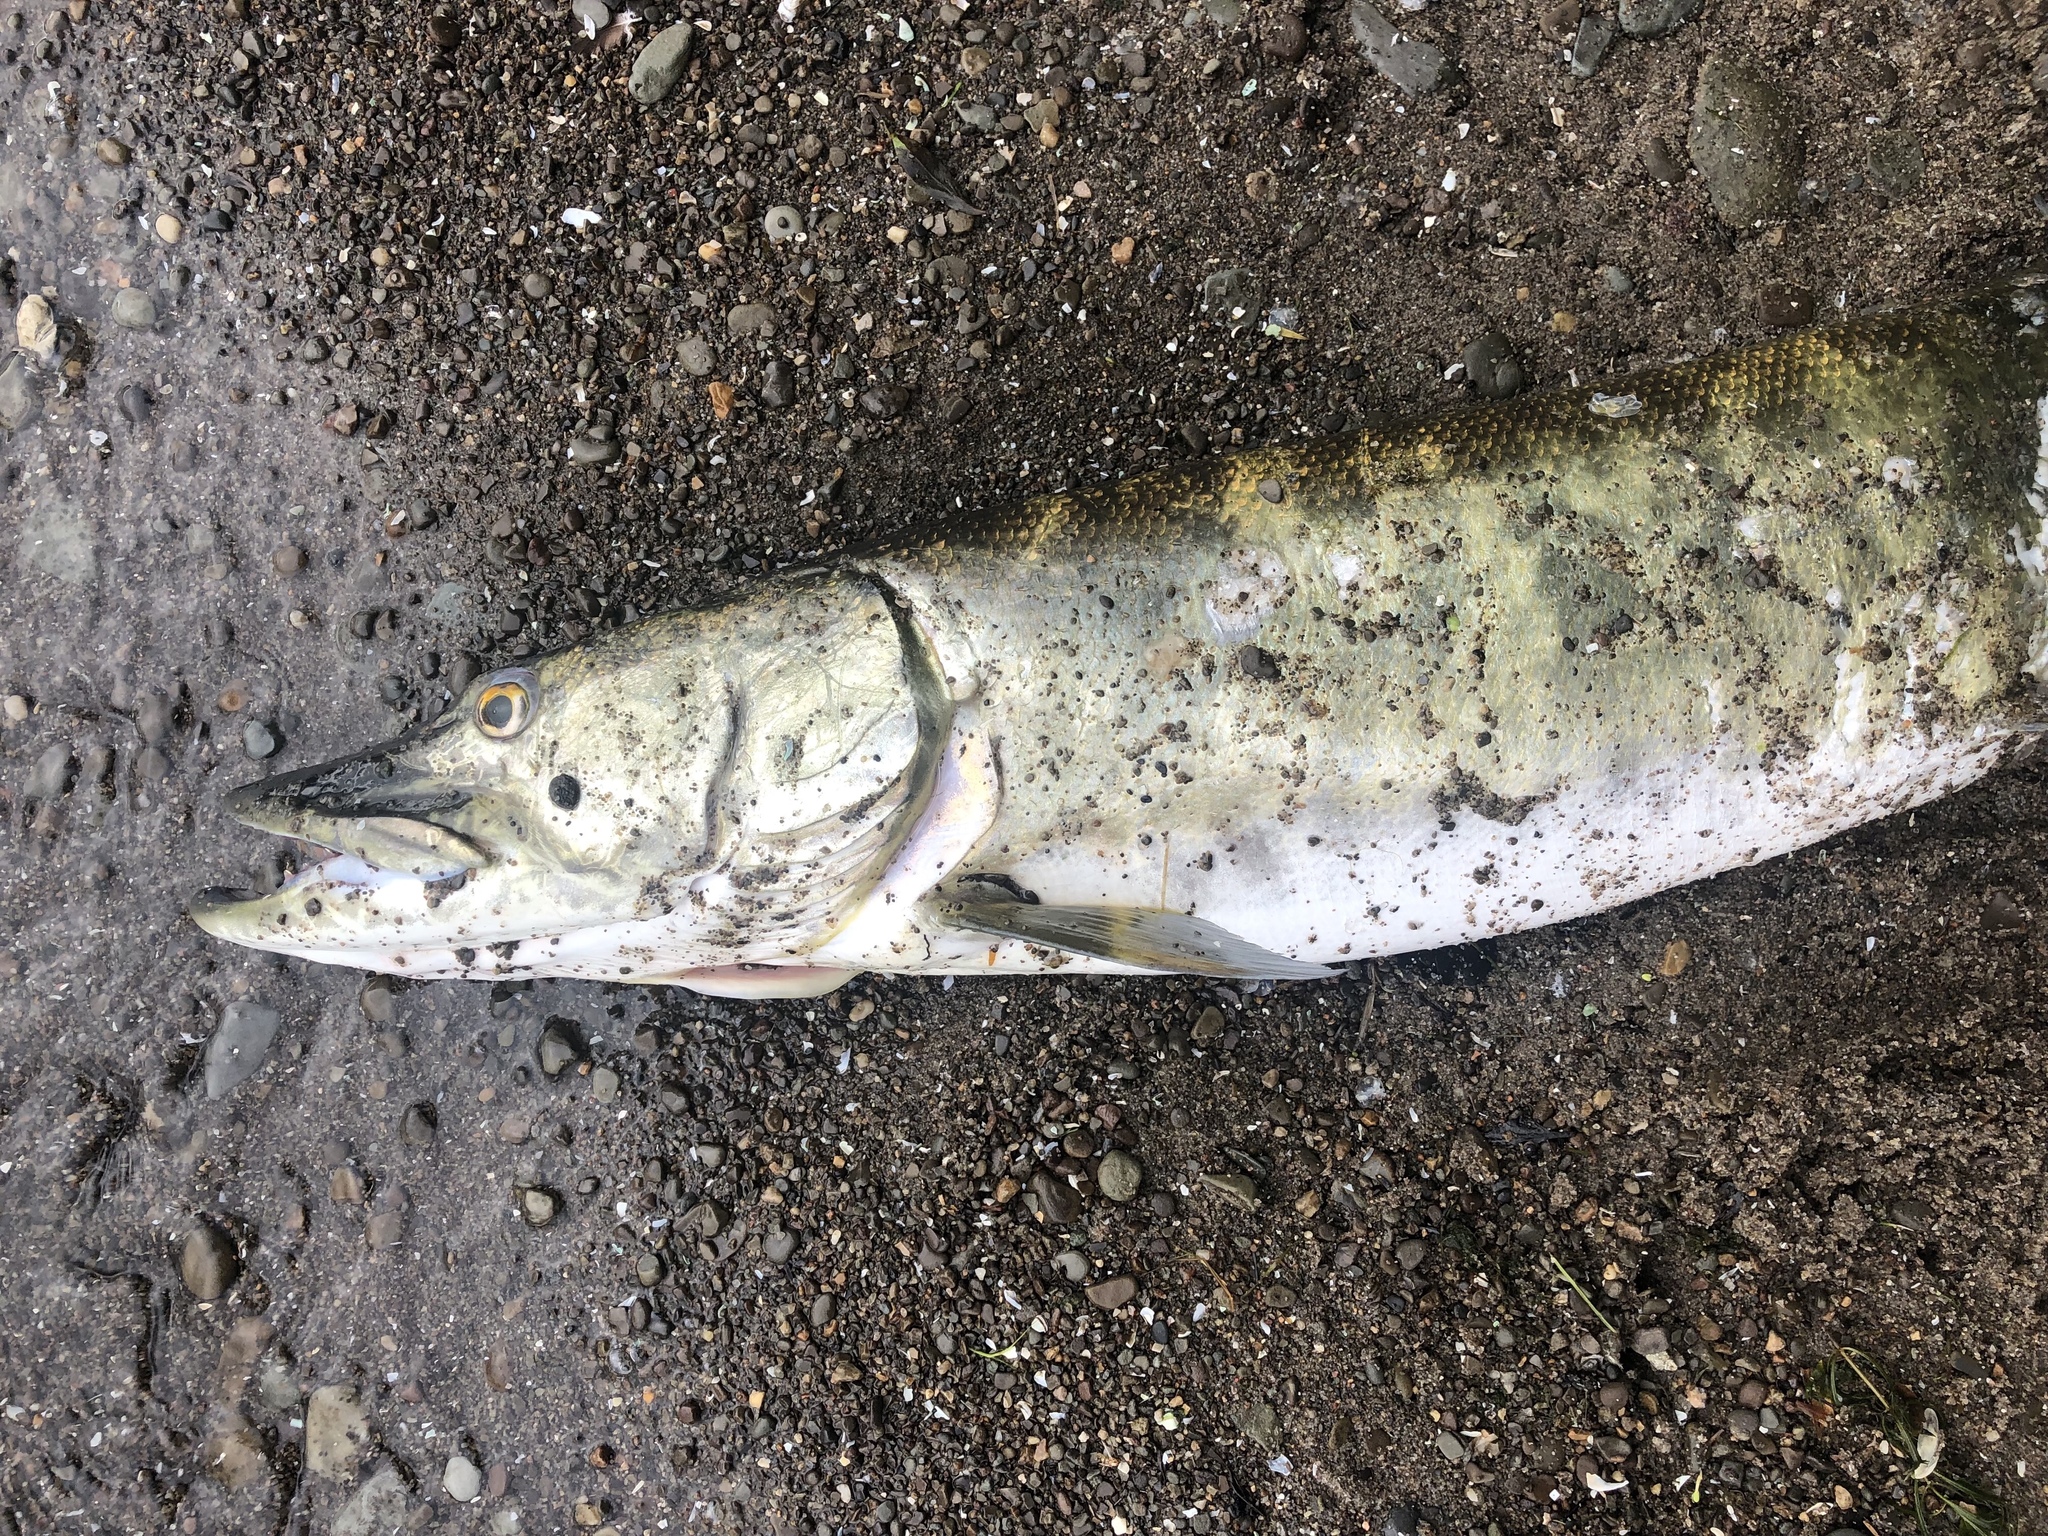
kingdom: Animalia
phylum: Chordata
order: Esociformes
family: Esocidae
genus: Esox
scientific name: Esox masquinongy
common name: Muskellunge
